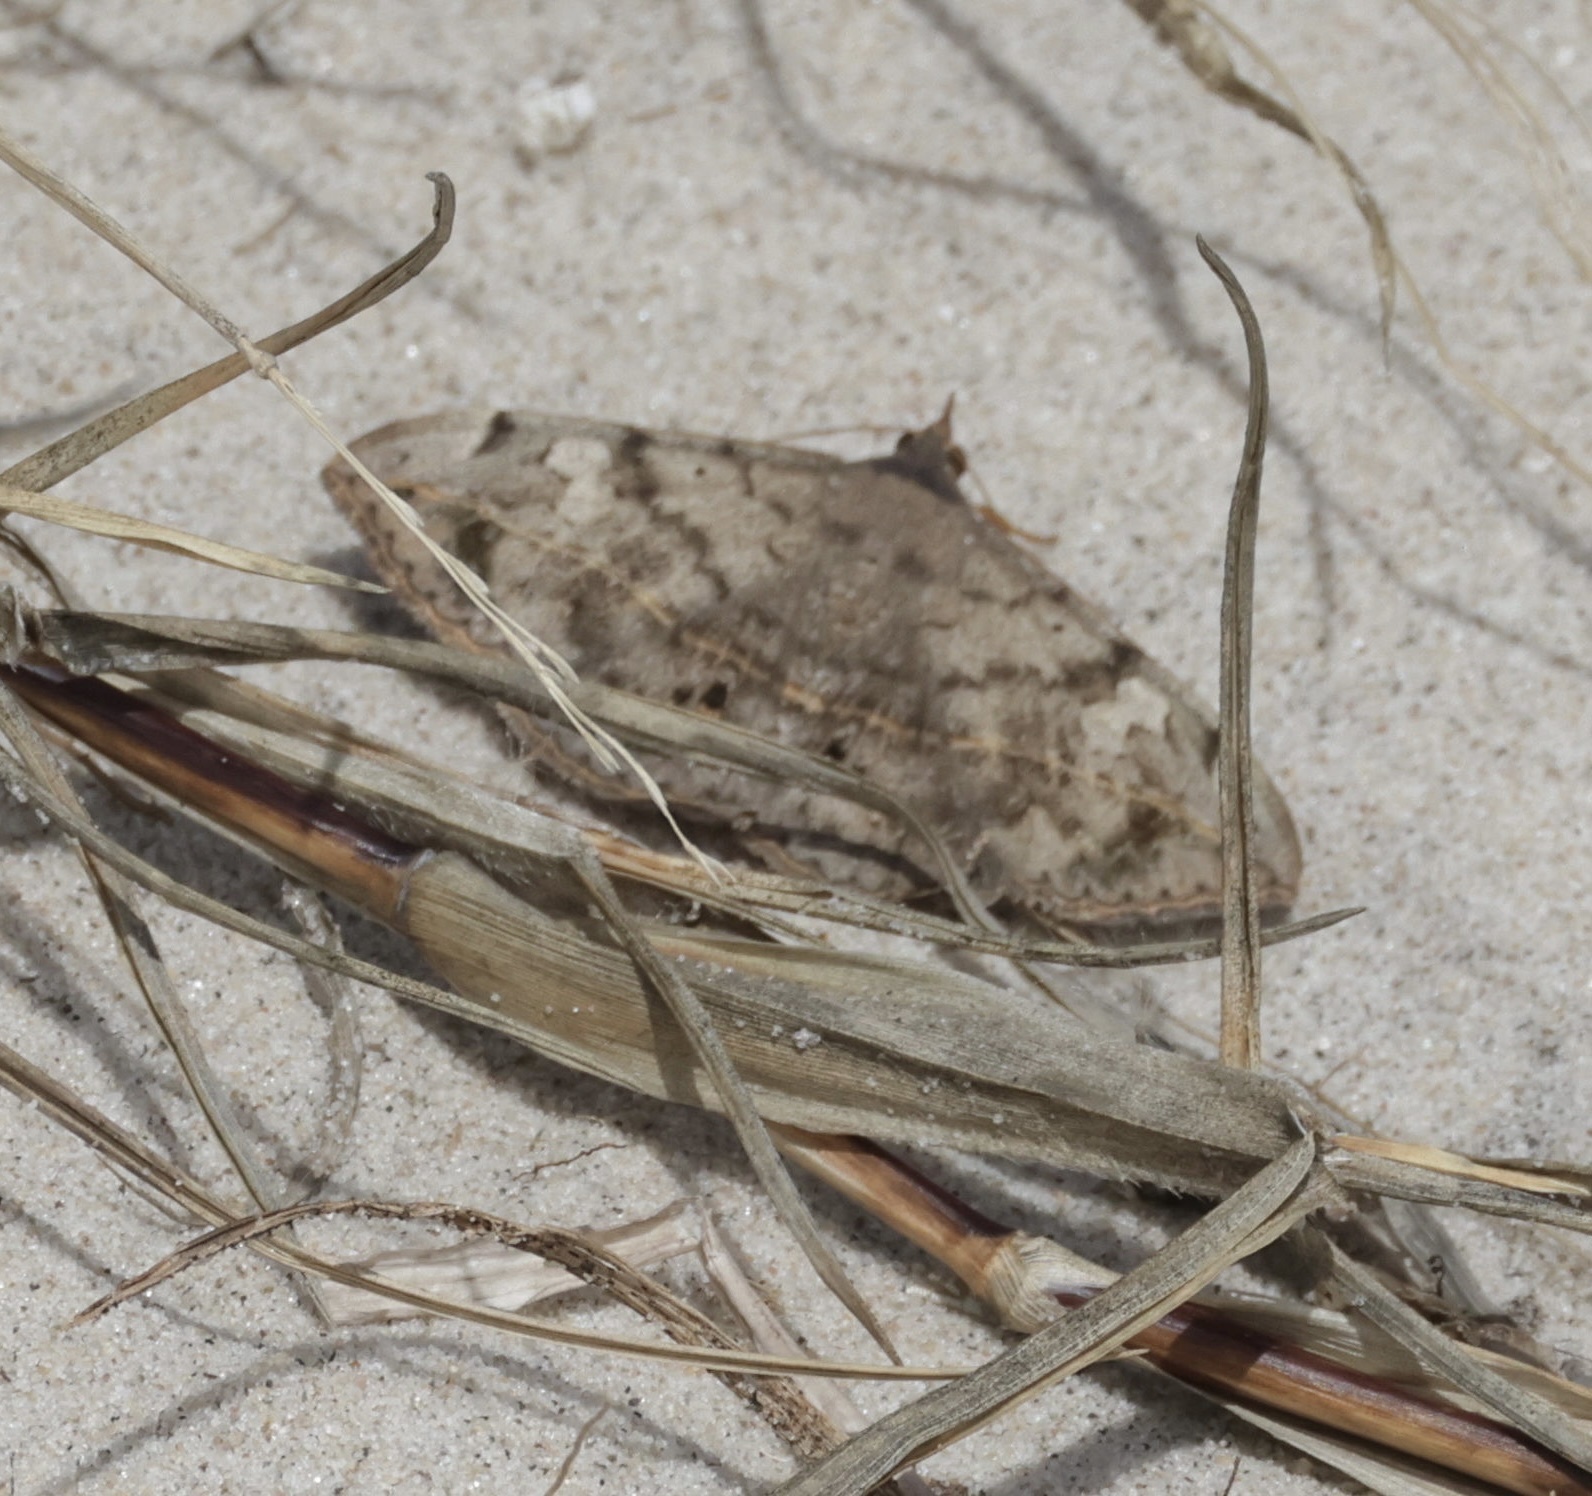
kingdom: Animalia
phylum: Arthropoda
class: Insecta
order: Lepidoptera
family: Erebidae
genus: Anticarsia
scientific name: Anticarsia gemmatalis
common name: Cutworm moth
